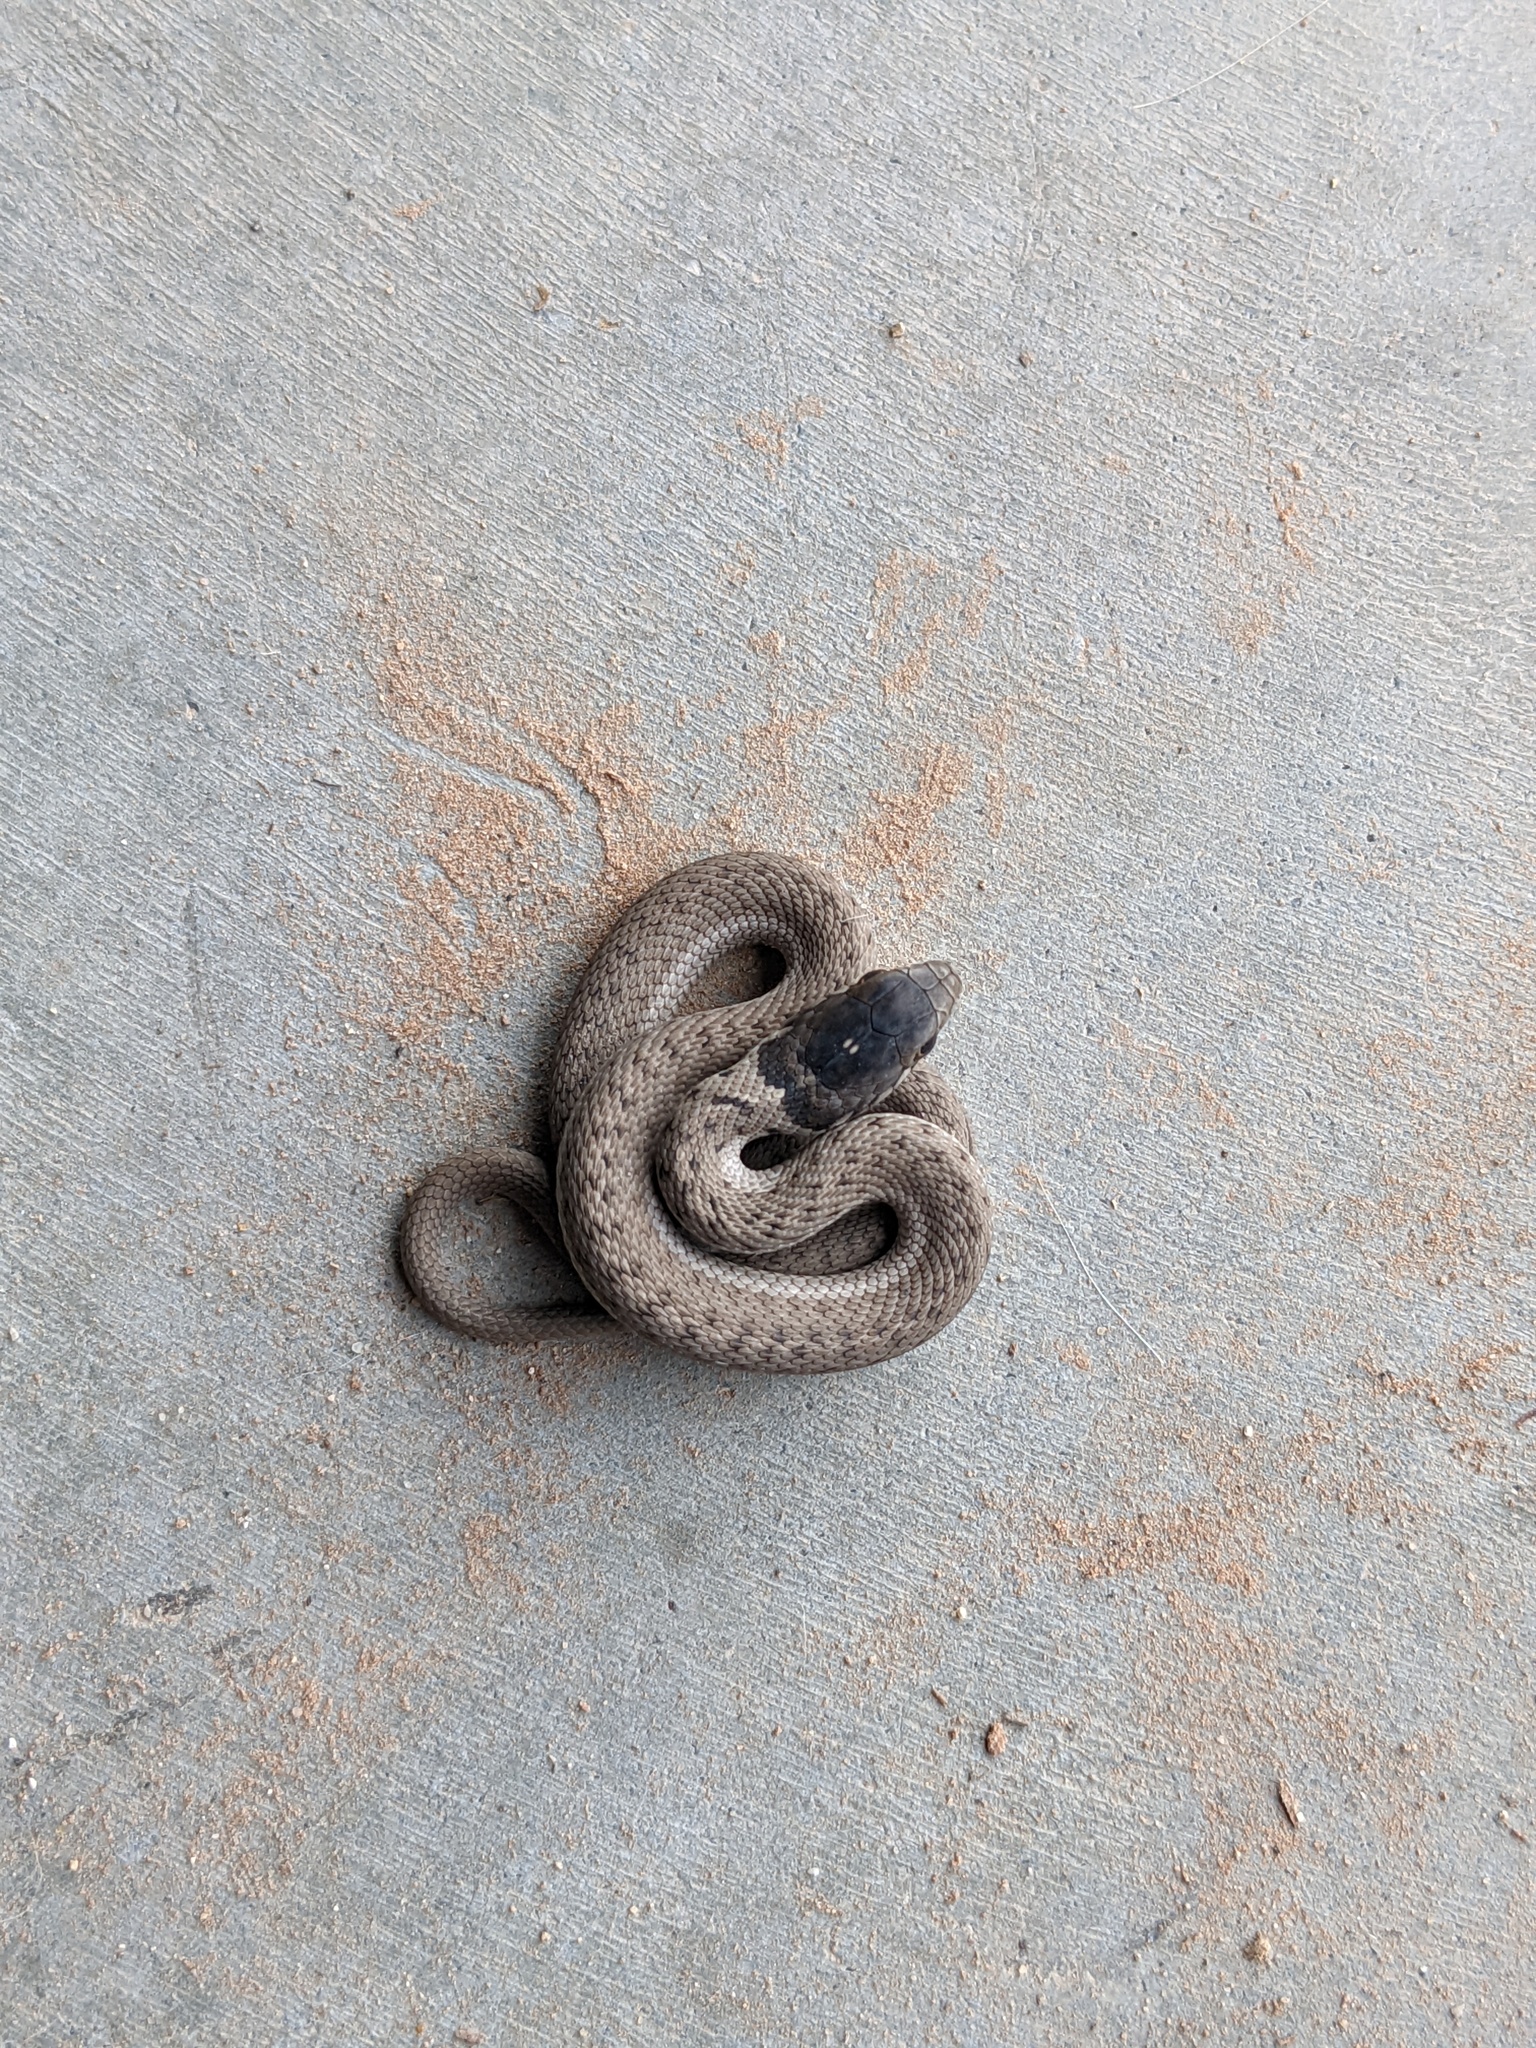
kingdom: Animalia
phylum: Chordata
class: Squamata
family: Colubridae
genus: Thamnophis
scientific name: Thamnophis elegans
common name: Western terrestrial garter snake
